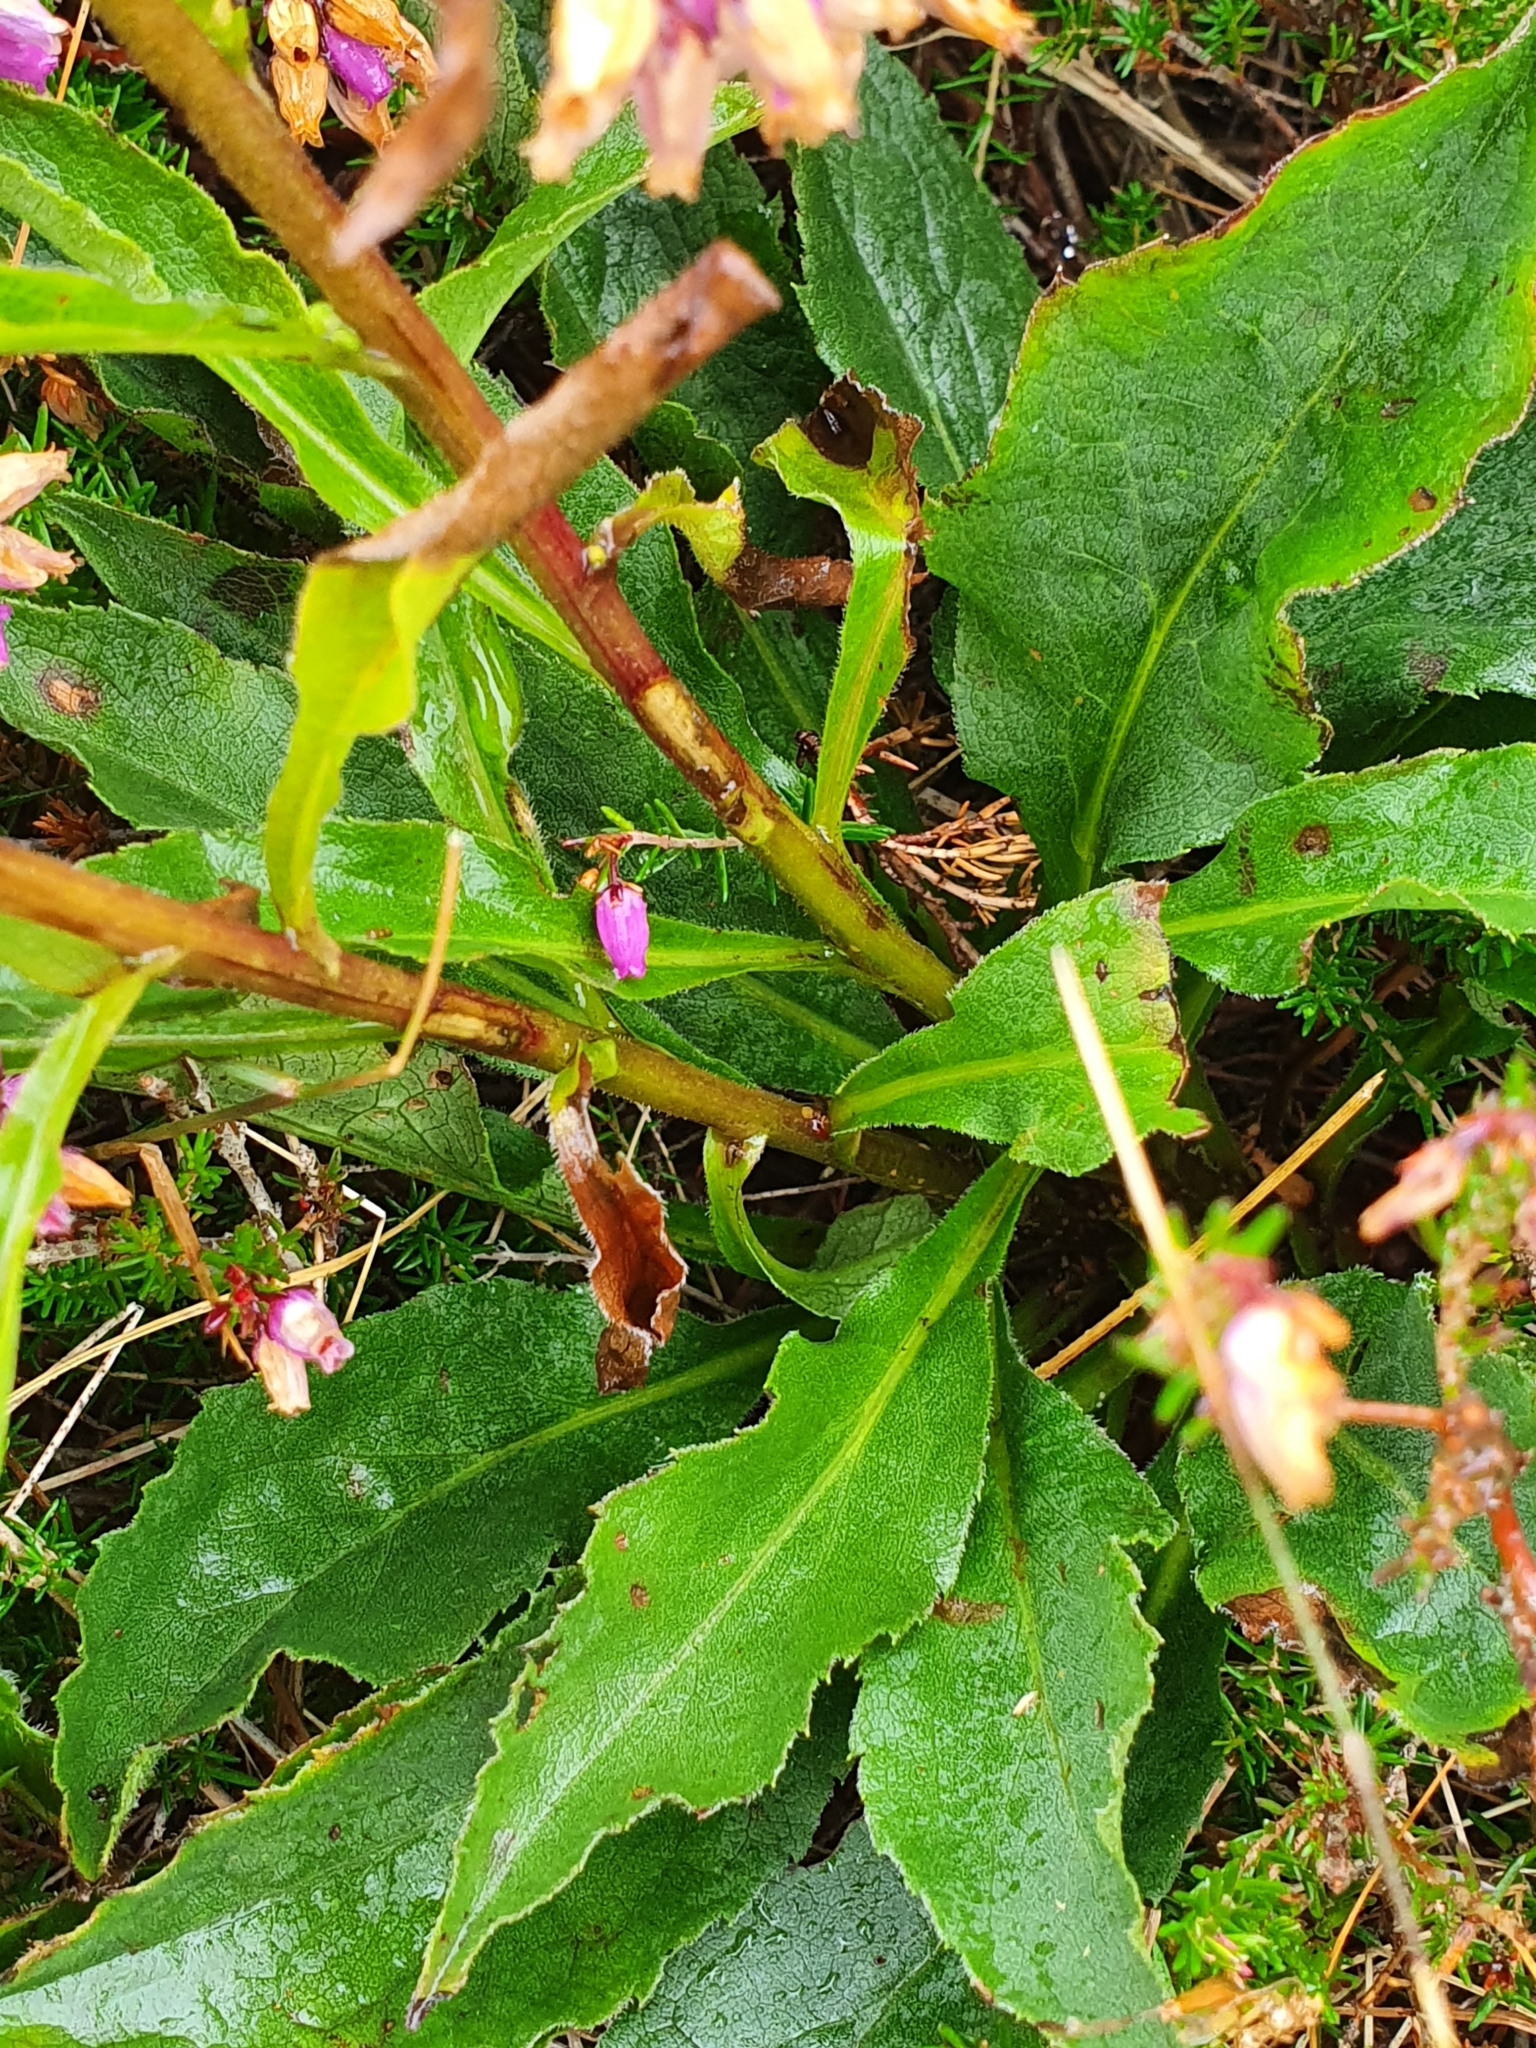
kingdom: Plantae
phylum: Tracheophyta
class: Magnoliopsida
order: Asterales
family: Asteraceae
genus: Solidago
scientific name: Solidago virgaurea
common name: Goldenrod
